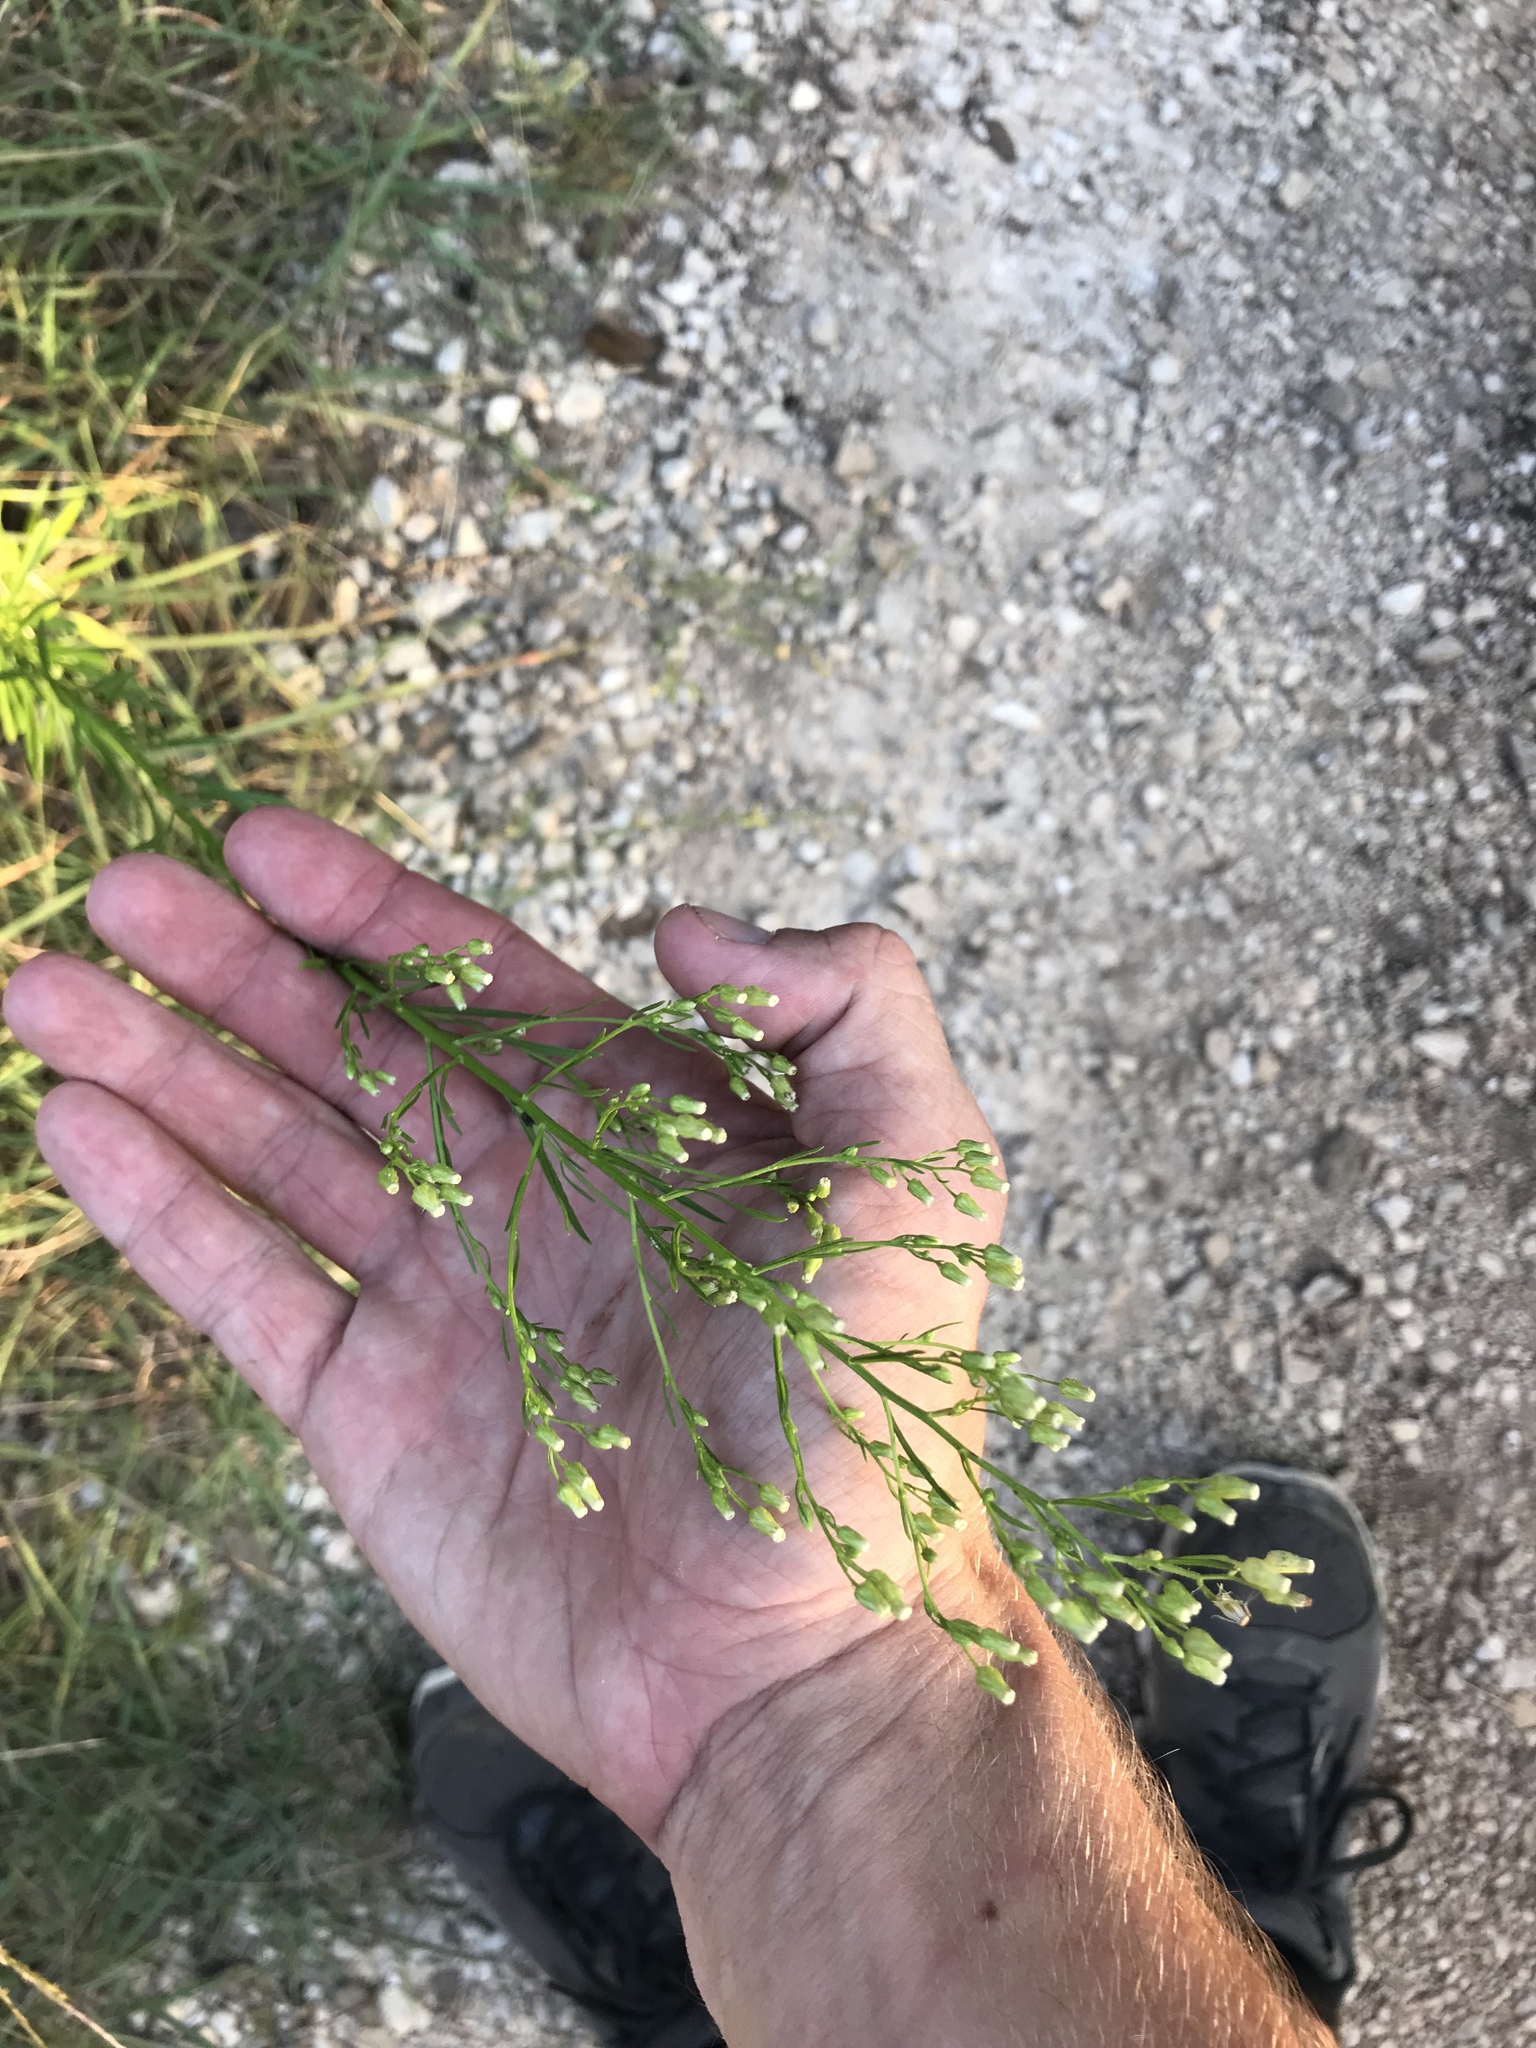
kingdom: Plantae
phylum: Tracheophyta
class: Magnoliopsida
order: Asterales
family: Asteraceae
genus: Erigeron
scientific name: Erigeron canadensis
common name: Canadian fleabane
